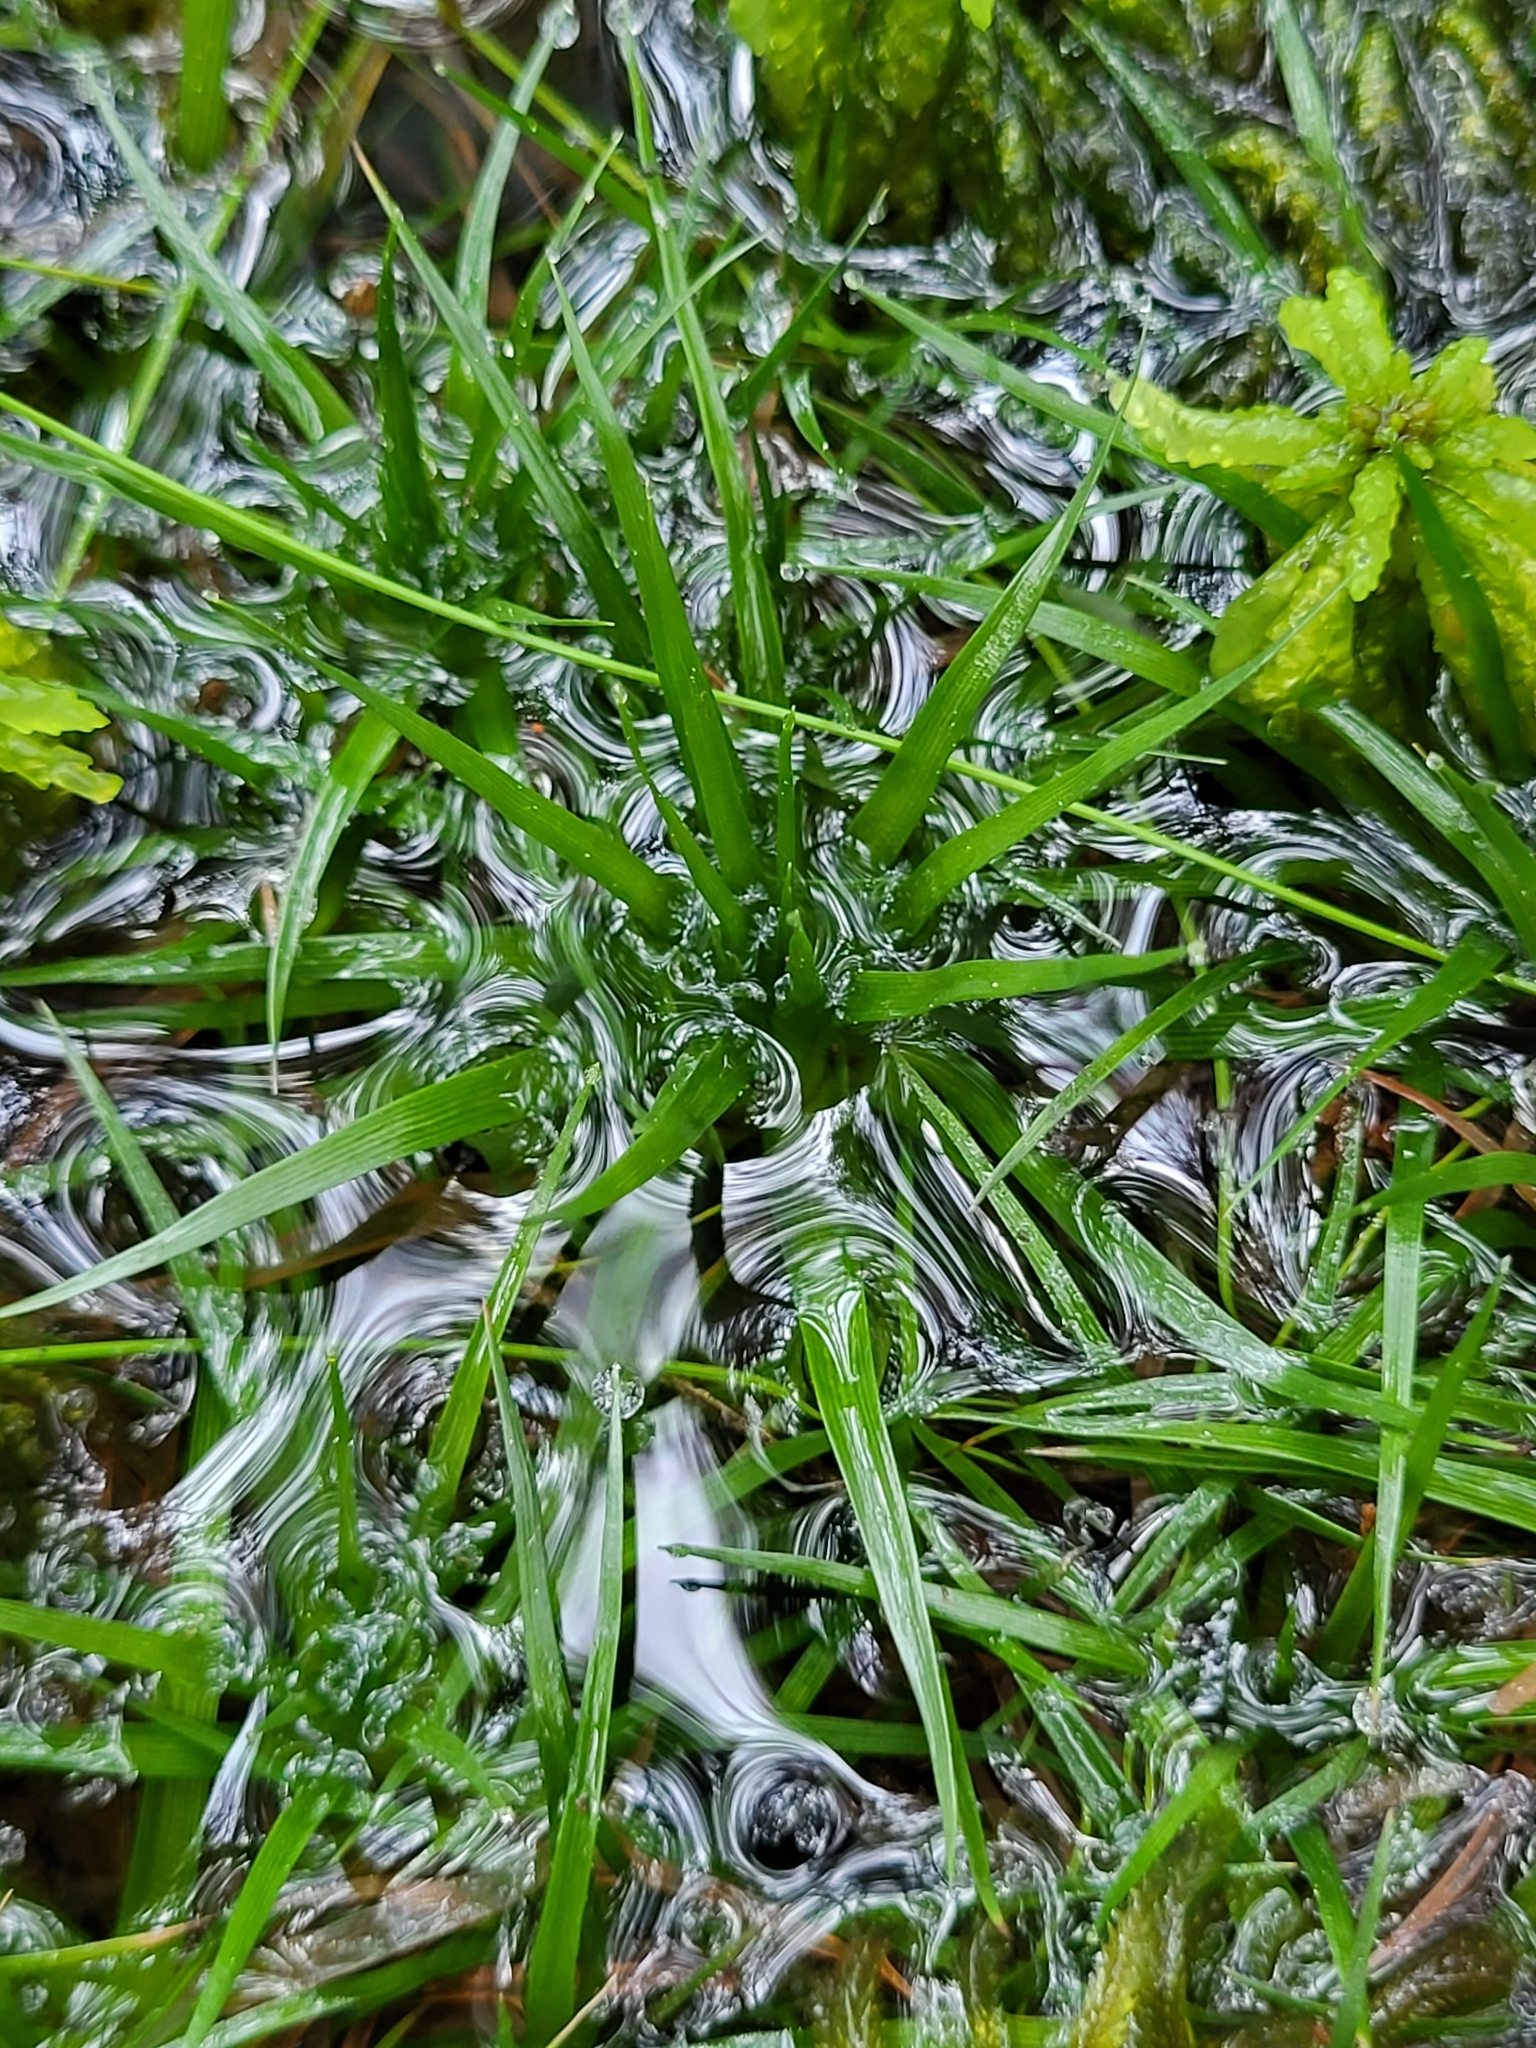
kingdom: Plantae
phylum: Tracheophyta
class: Liliopsida
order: Poales
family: Eriocaulaceae
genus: Eriocaulon
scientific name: Eriocaulon aquaticum
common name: Pipewort
